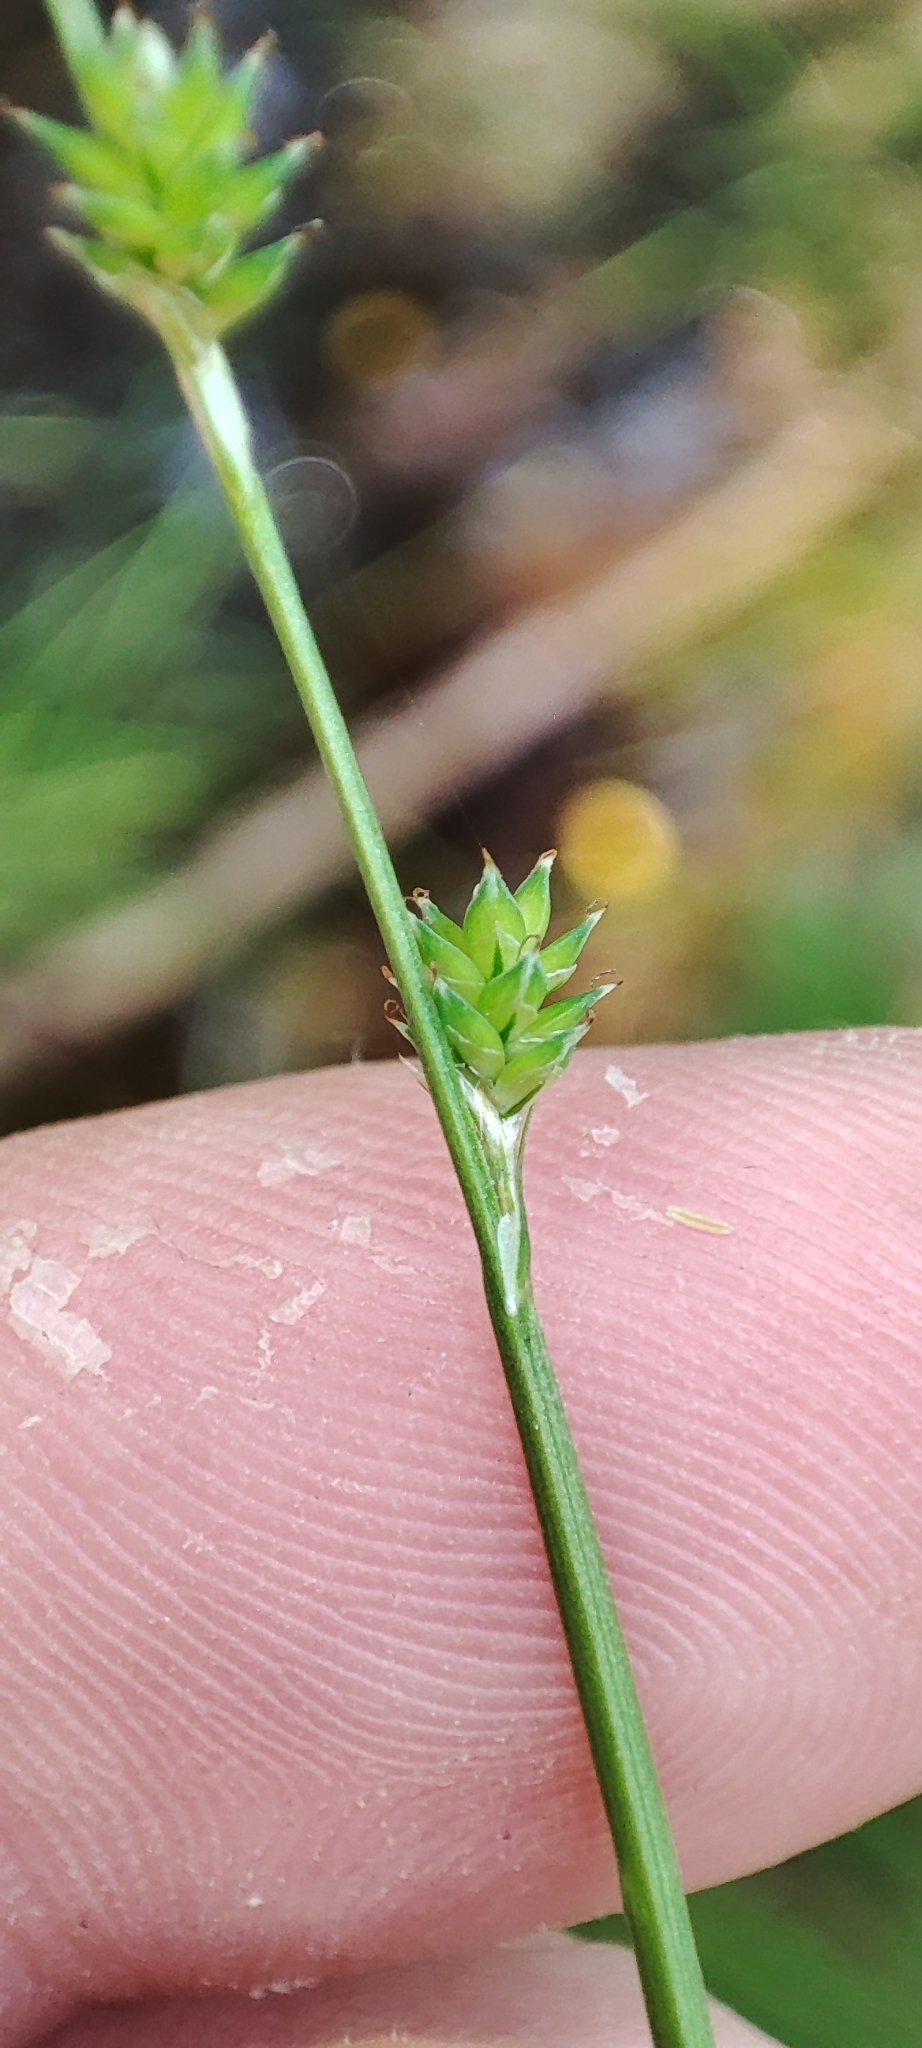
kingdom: Plantae
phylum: Tracheophyta
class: Liliopsida
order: Poales
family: Cyperaceae
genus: Carex
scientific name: Carex canescens
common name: White sedge
